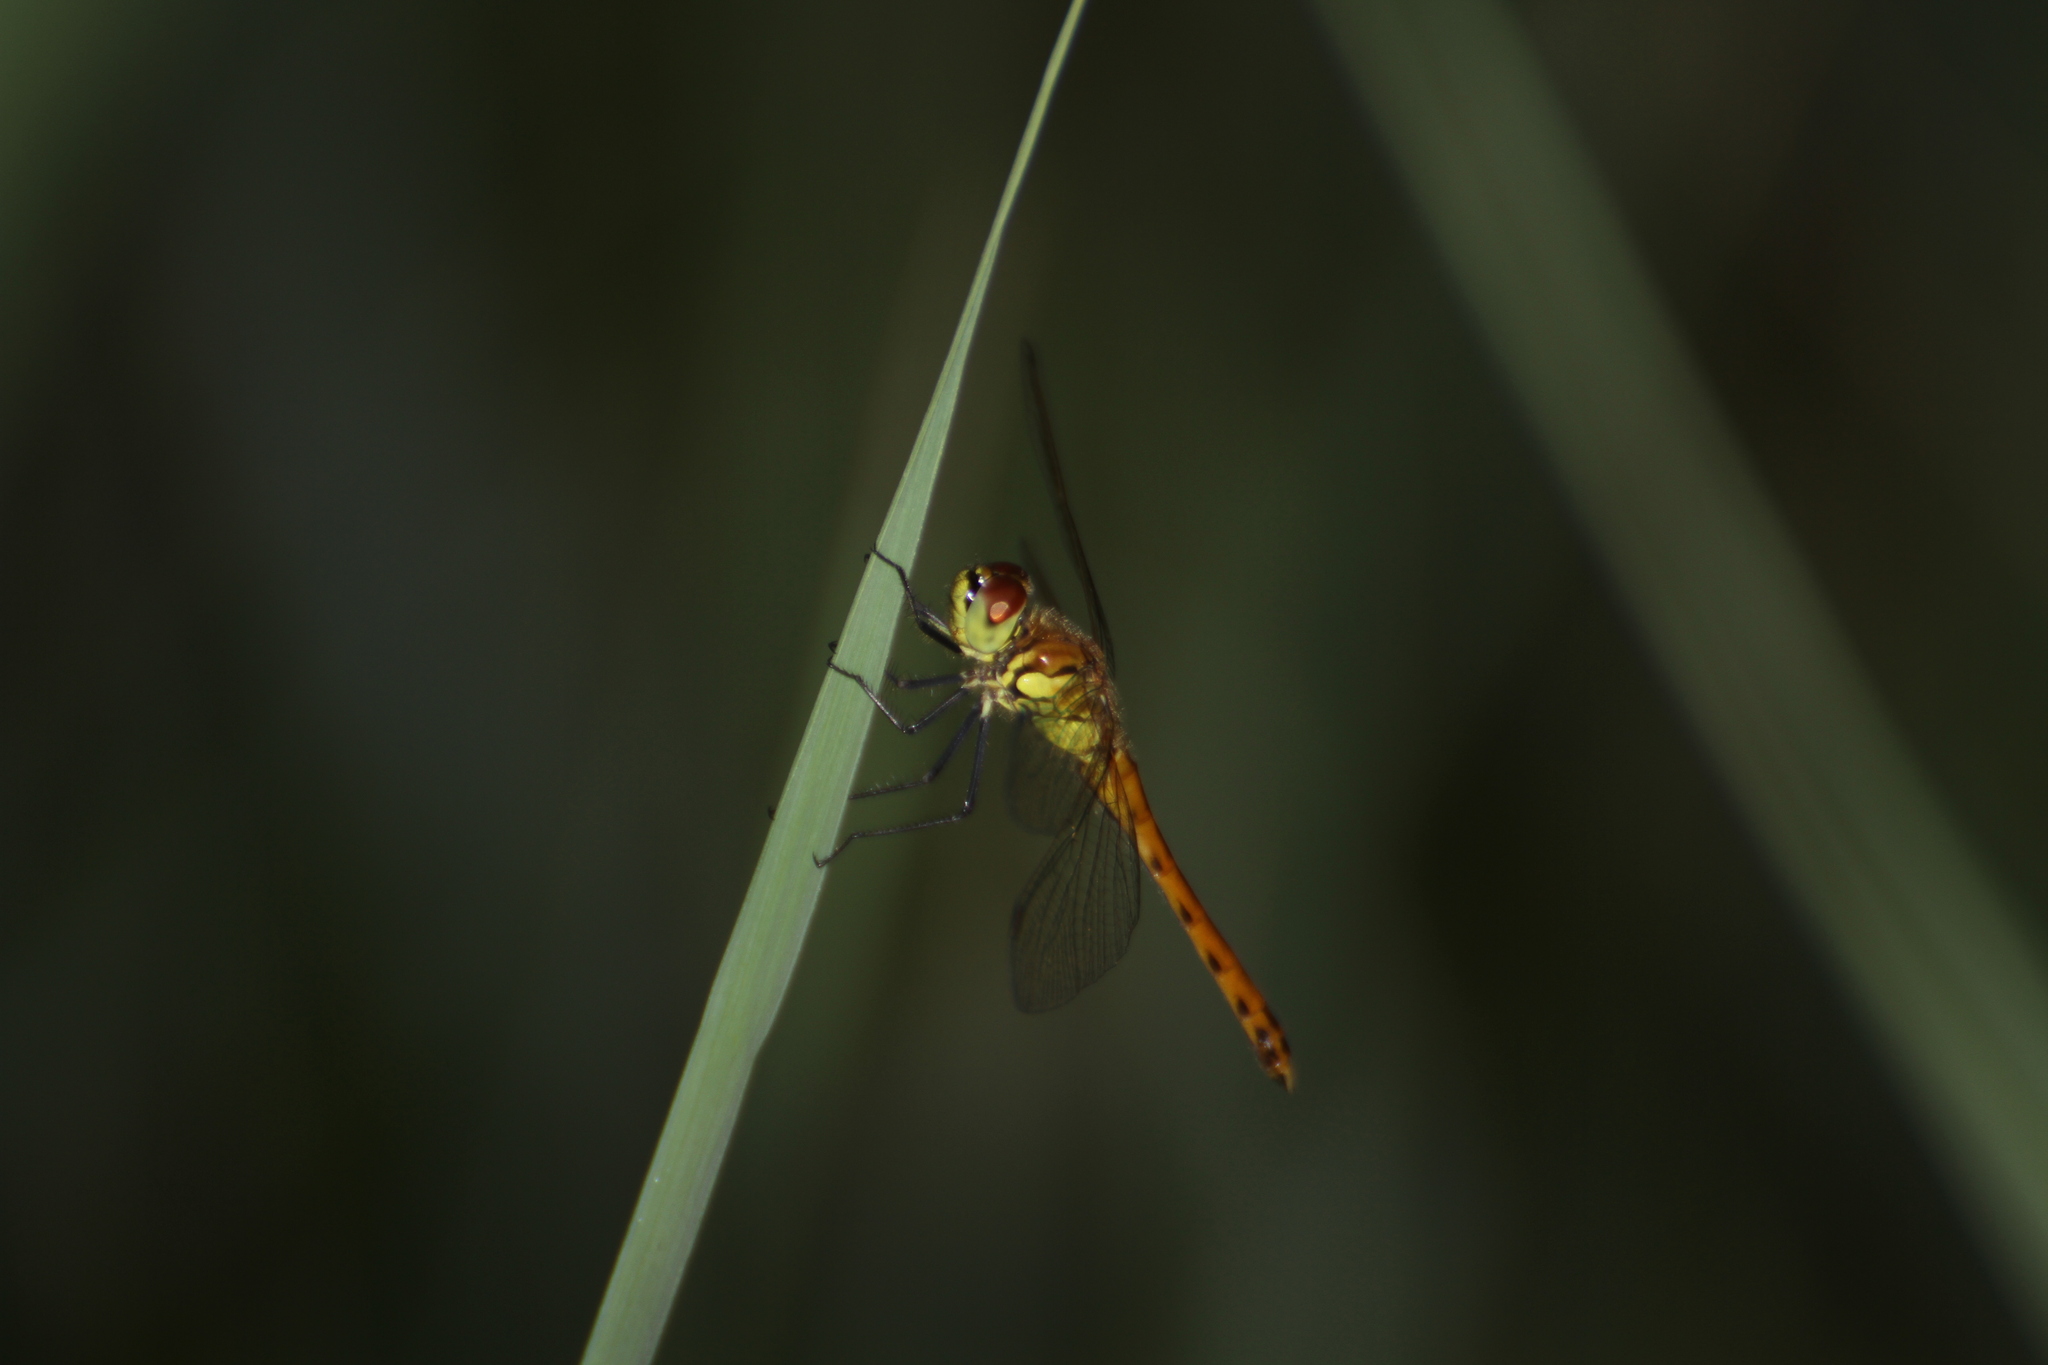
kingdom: Animalia
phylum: Arthropoda
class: Insecta
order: Odonata
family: Libellulidae
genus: Sympetrum
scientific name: Sympetrum depressiusculum
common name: Spotted darter
